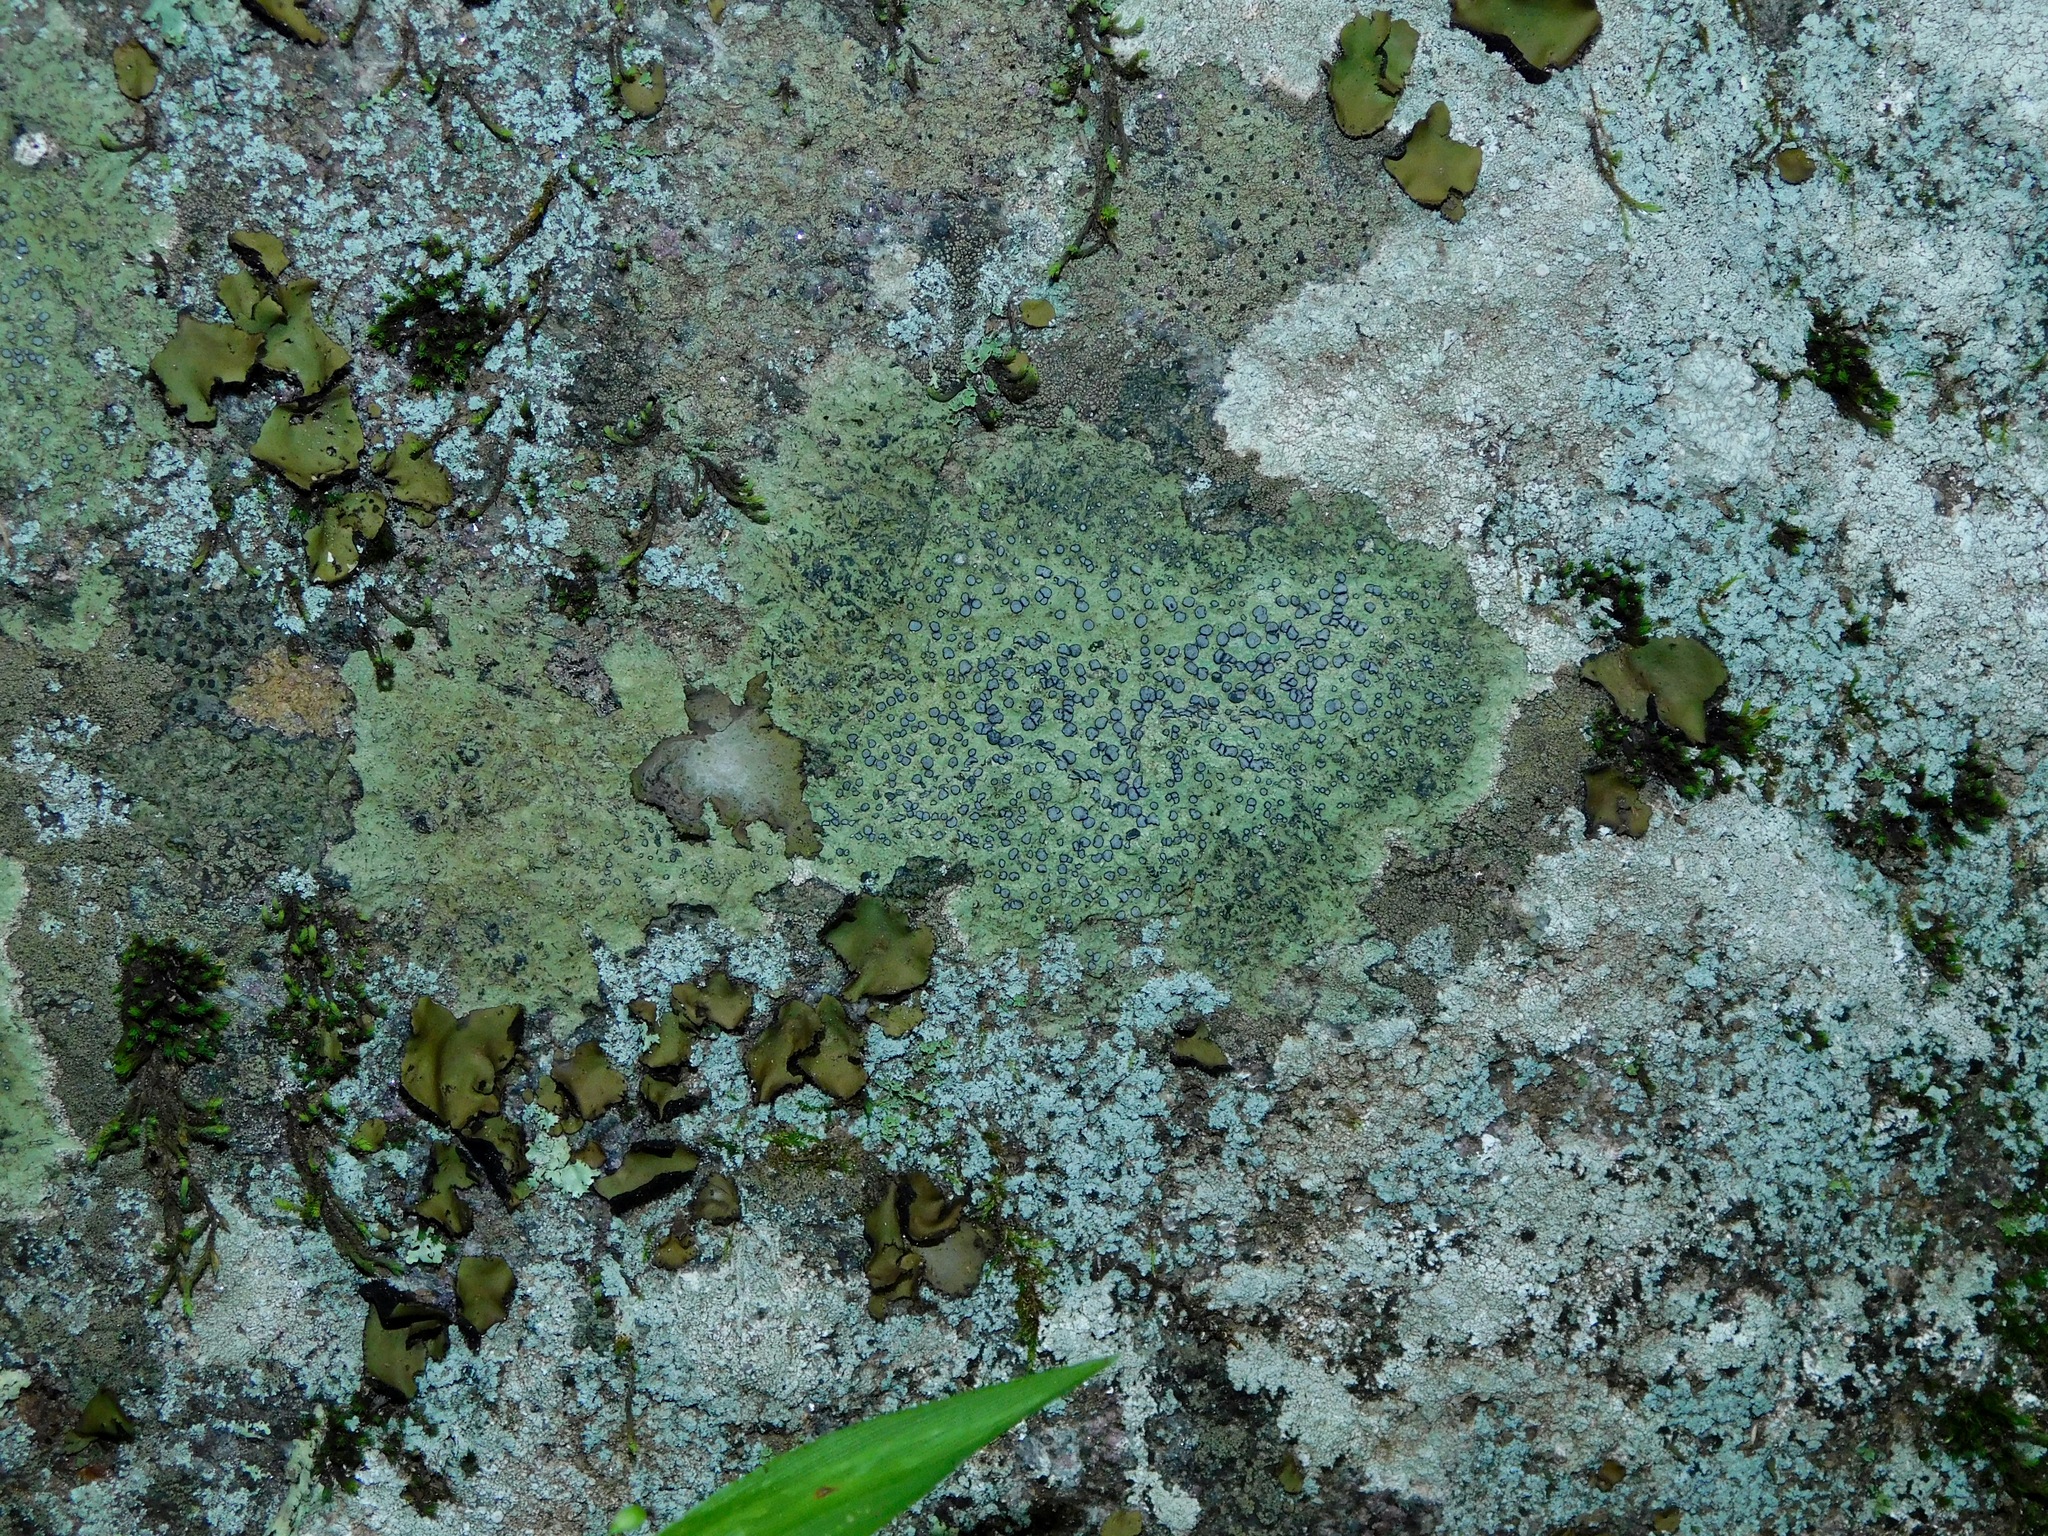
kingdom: Fungi
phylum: Ascomycota
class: Lecanoromycetes
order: Lecideales
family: Lecideaceae
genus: Porpidia
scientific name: Porpidia albocaerulescens
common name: Smokey-eyed boulder lichen
